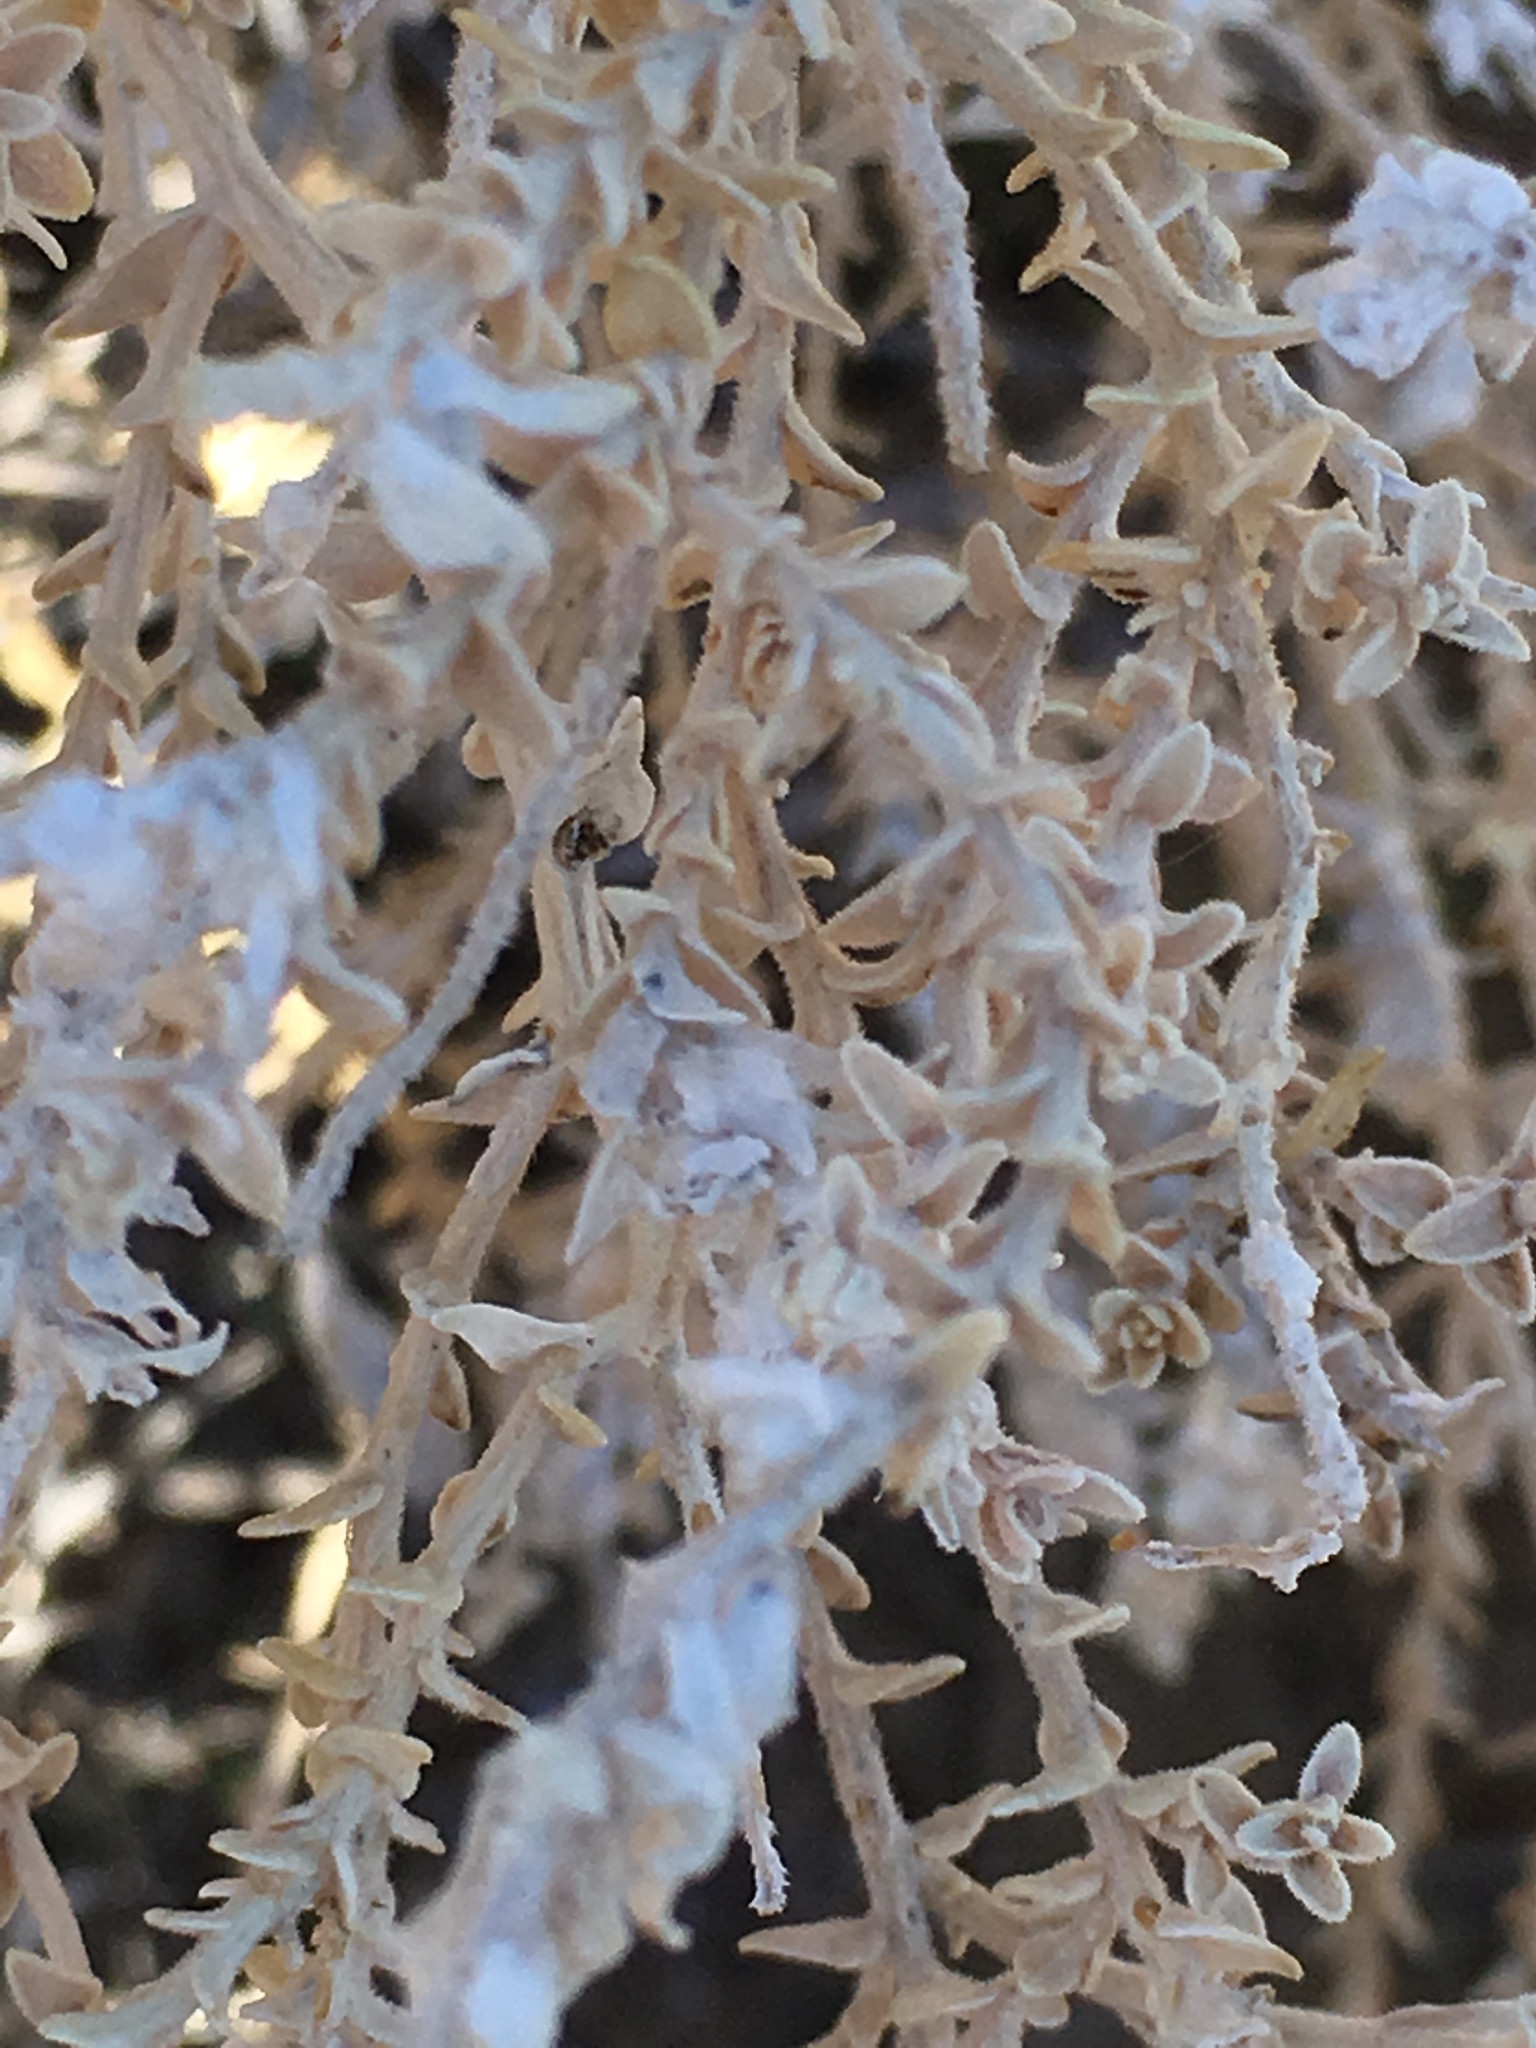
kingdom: Plantae
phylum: Tracheophyta
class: Magnoliopsida
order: Cornales
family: Loasaceae
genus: Petalonyx
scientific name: Petalonyx thurberi
